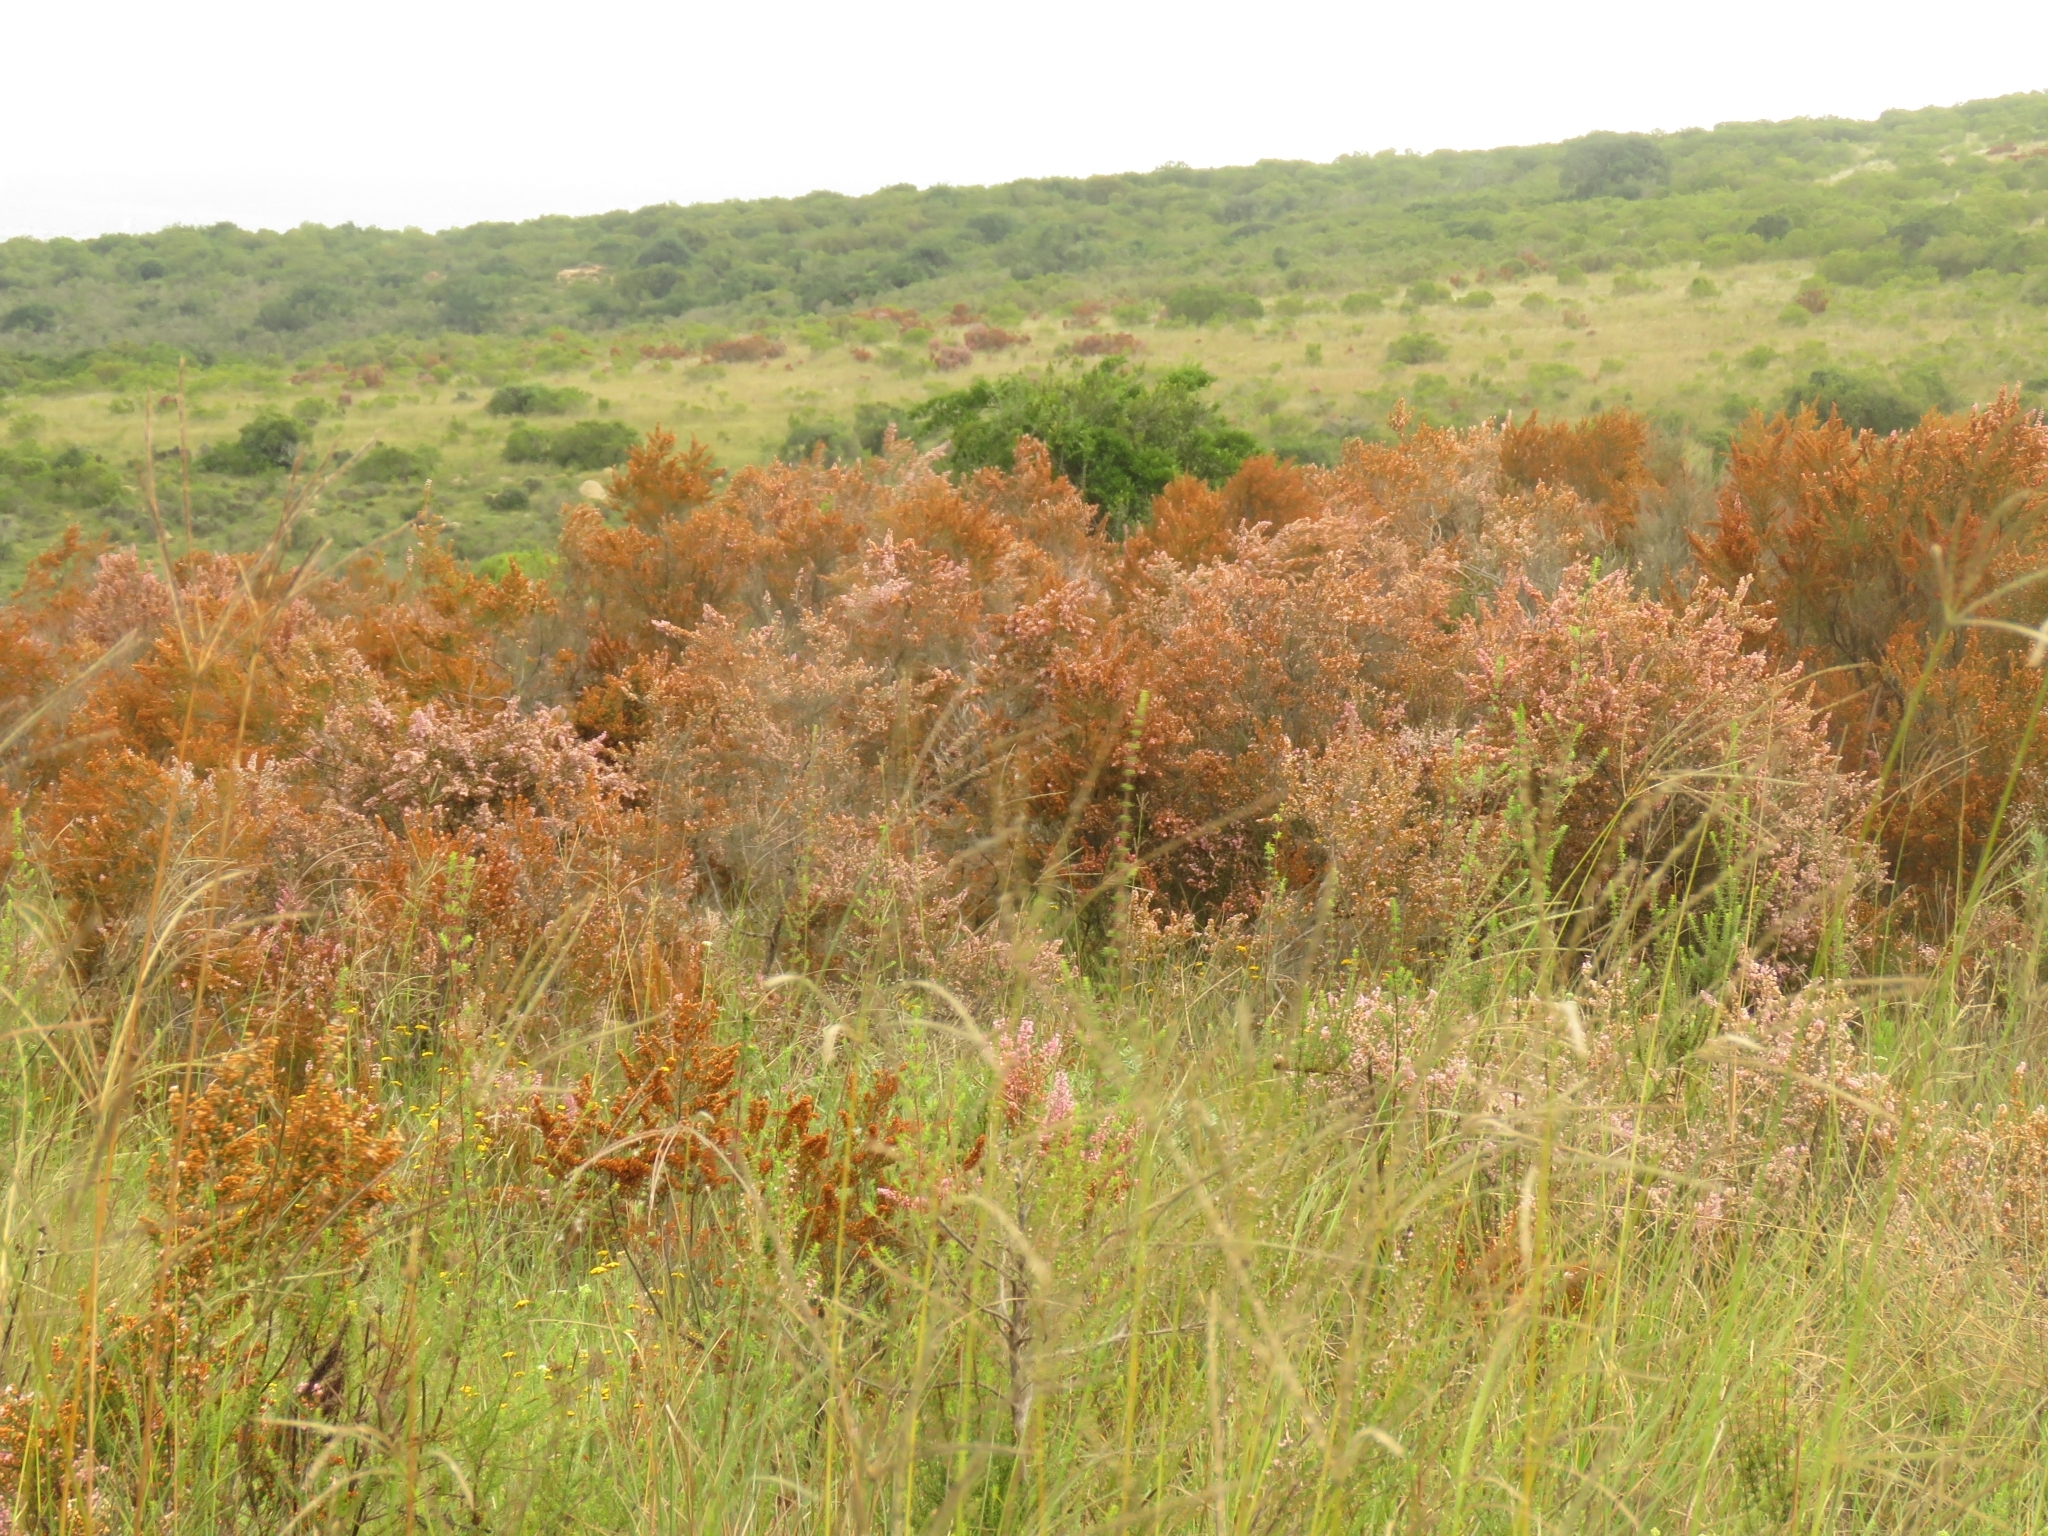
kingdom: Plantae
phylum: Tracheophyta
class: Magnoliopsida
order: Ericales
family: Ericaceae
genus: Erica
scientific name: Erica trivialis
